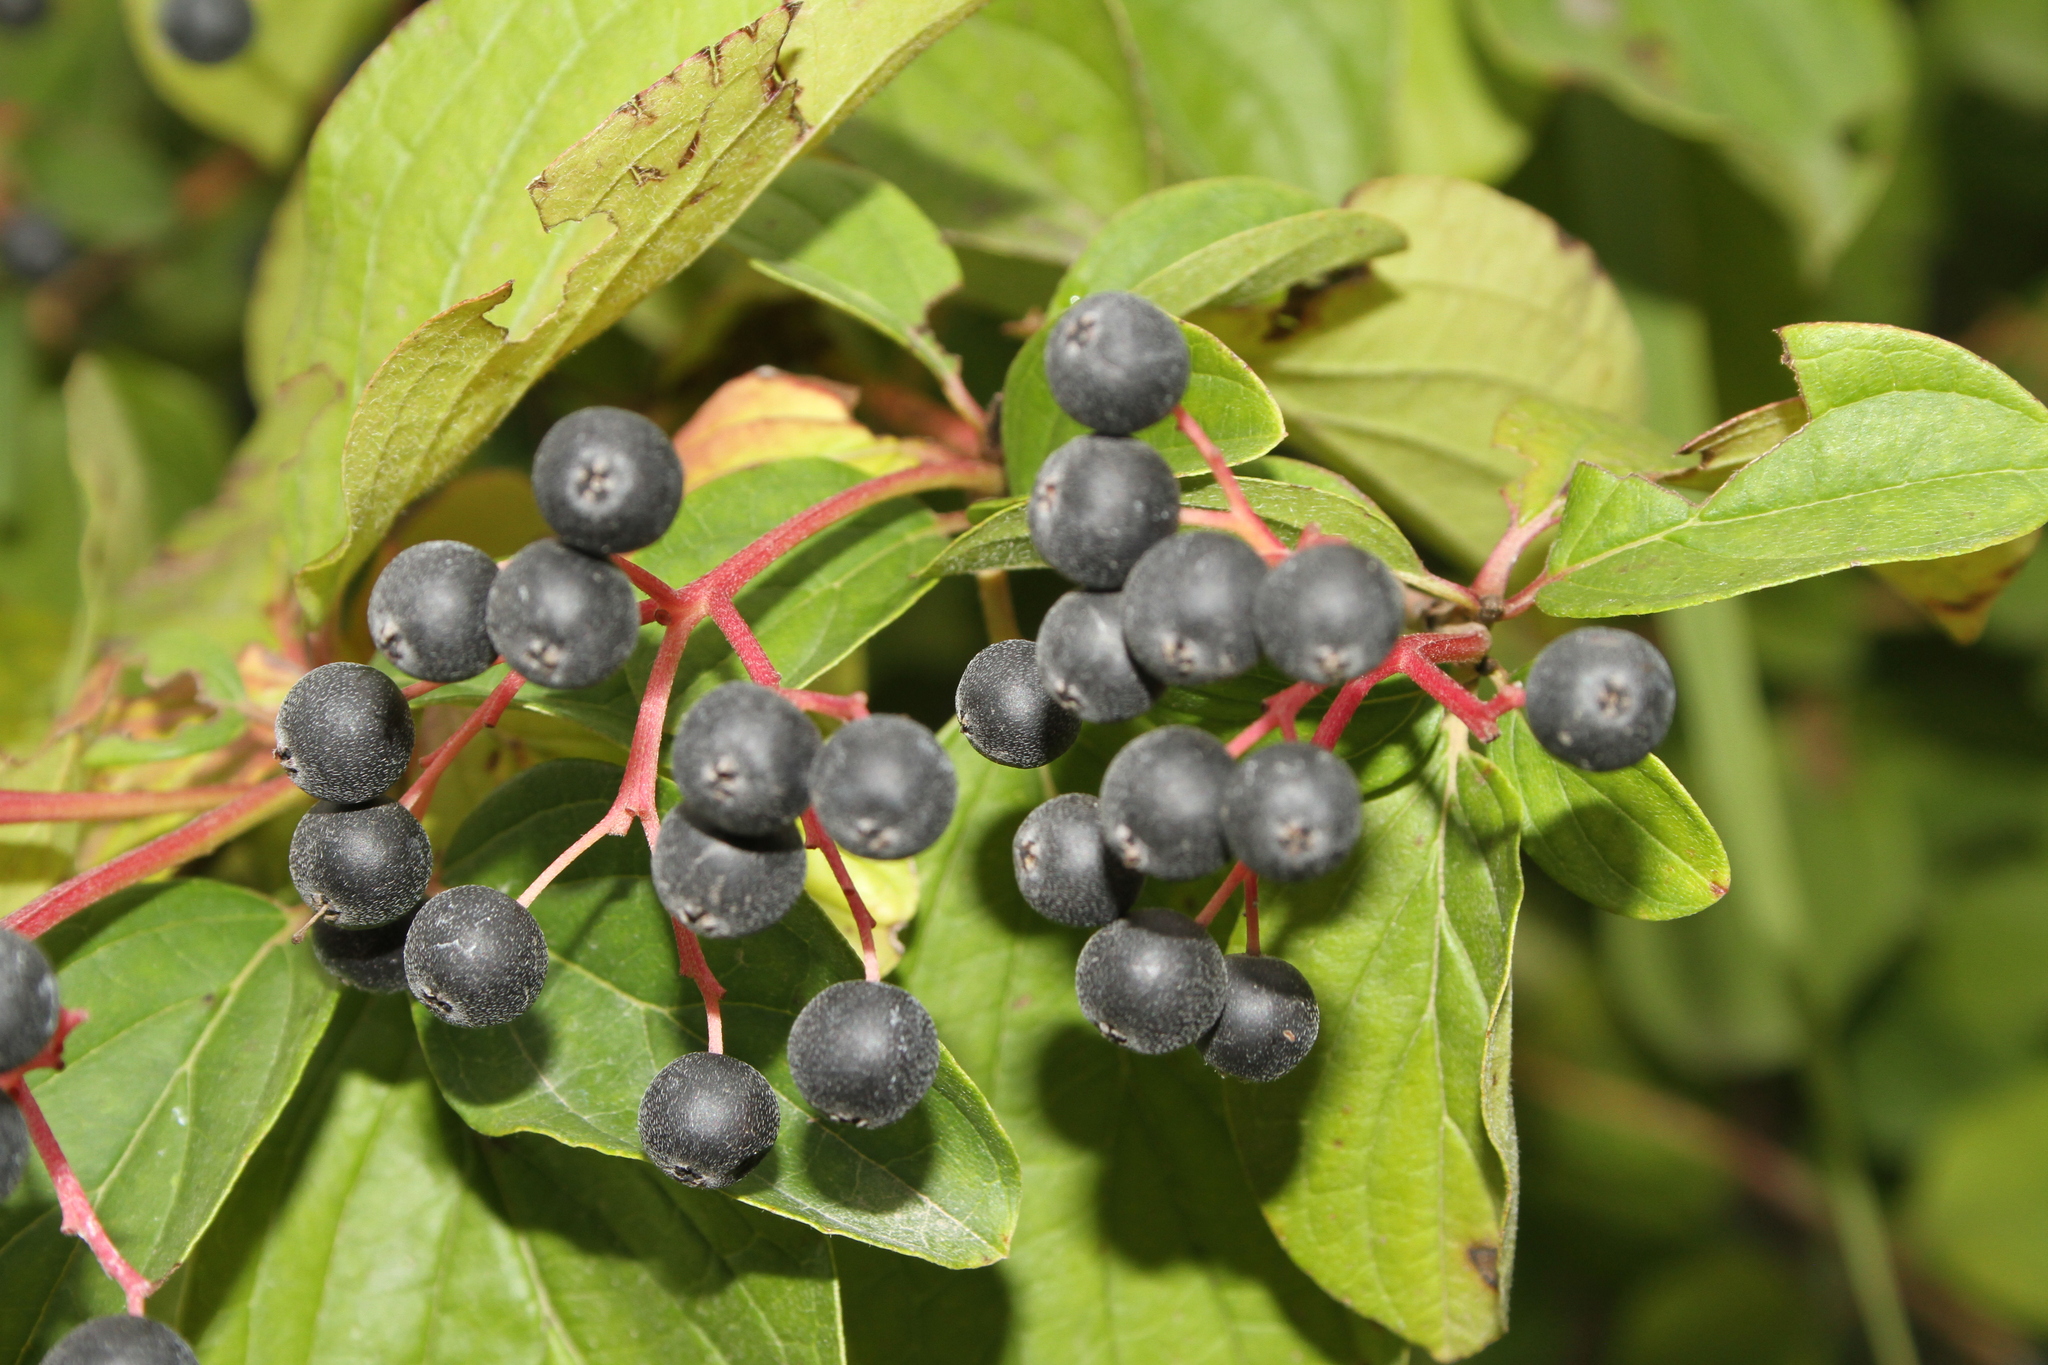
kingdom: Plantae
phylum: Tracheophyta
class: Magnoliopsida
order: Cornales
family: Cornaceae
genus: Cornus
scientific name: Cornus sanguinea
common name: Dogwood
